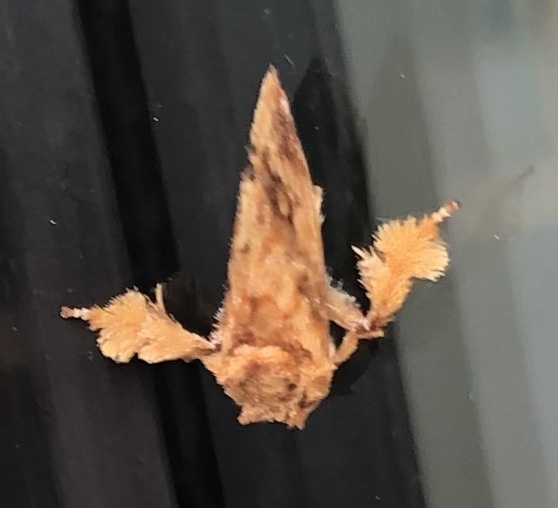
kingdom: Animalia
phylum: Arthropoda
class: Insecta
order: Lepidoptera
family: Limacodidae
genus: Isochaetes
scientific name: Isochaetes beutenmuelleri
